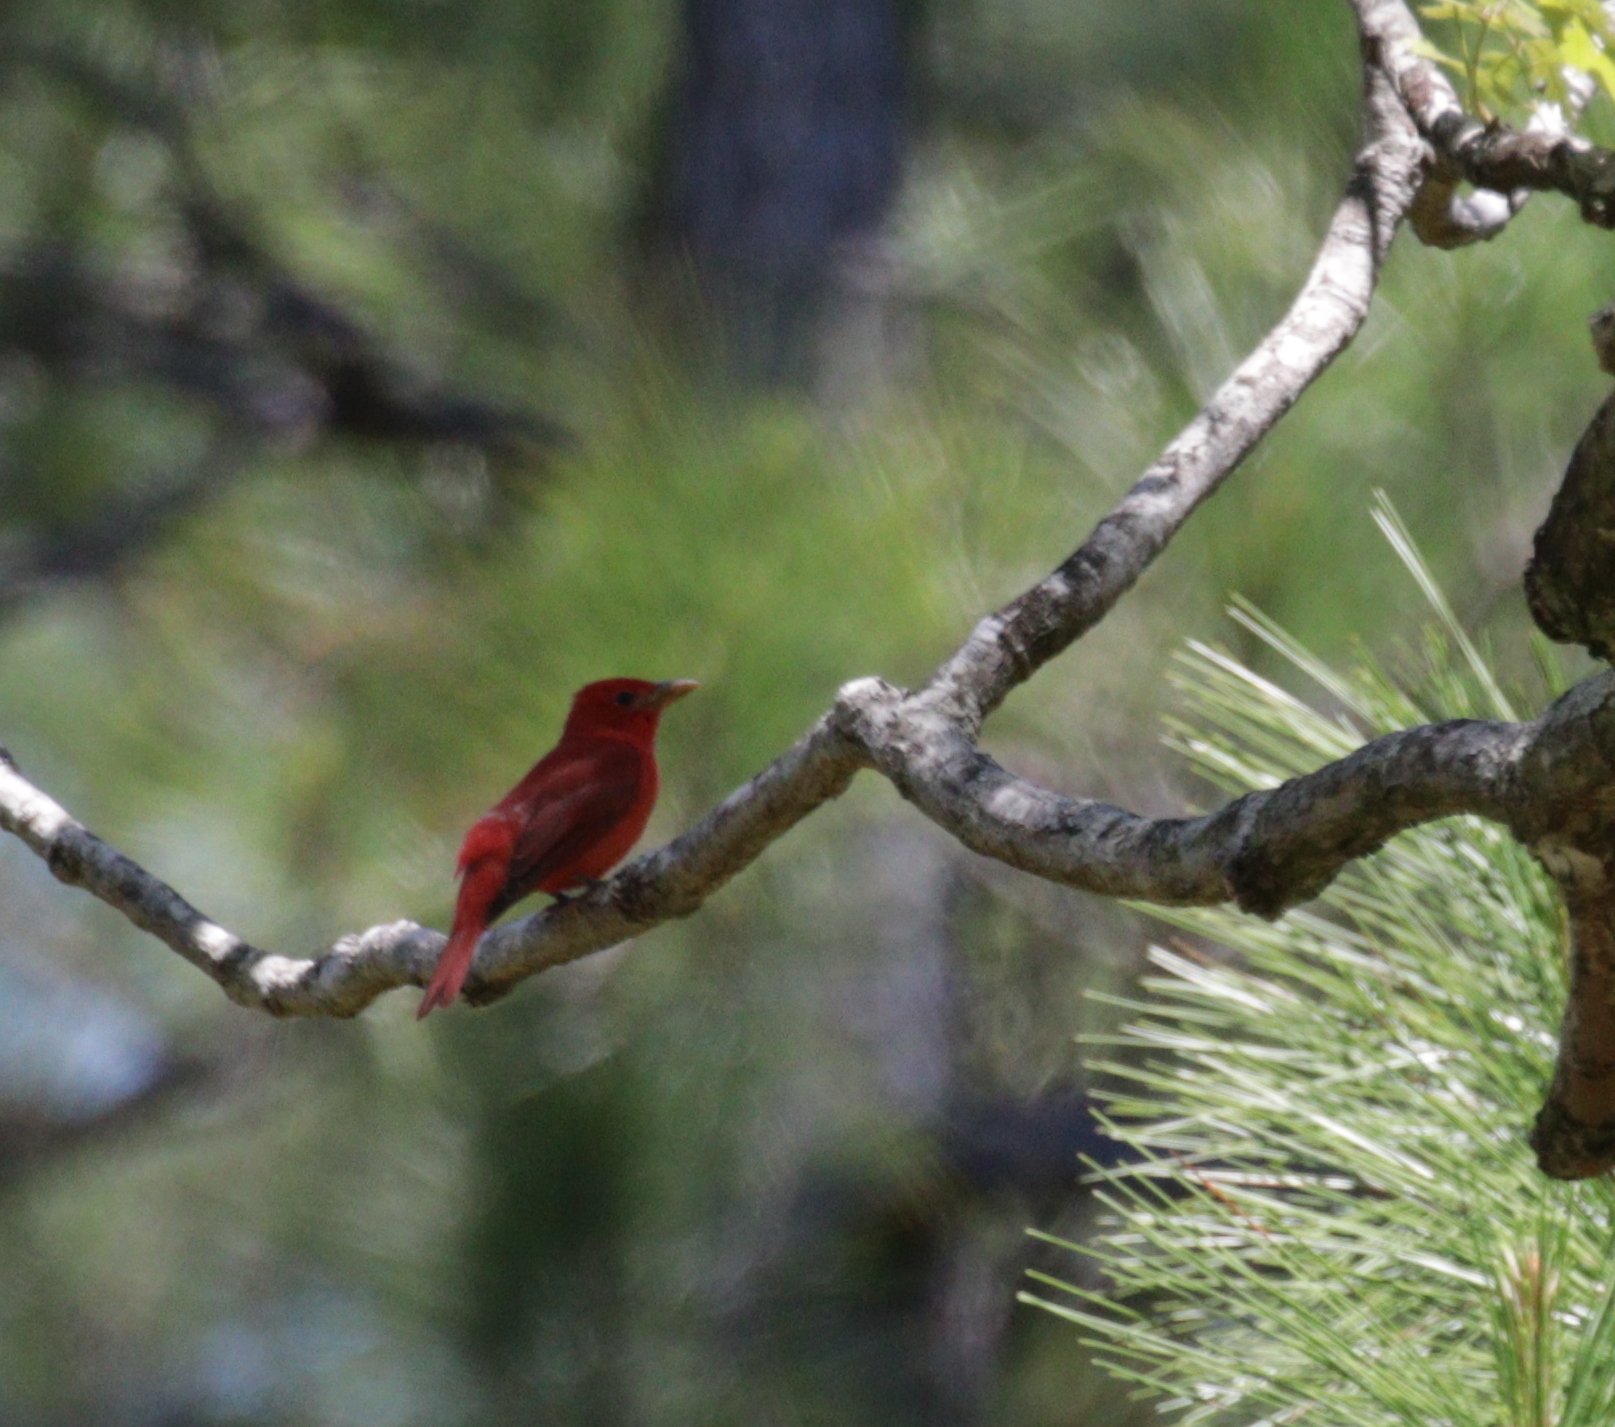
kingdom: Animalia
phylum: Chordata
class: Aves
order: Passeriformes
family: Cardinalidae
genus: Piranga
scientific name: Piranga rubra
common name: Summer tanager
